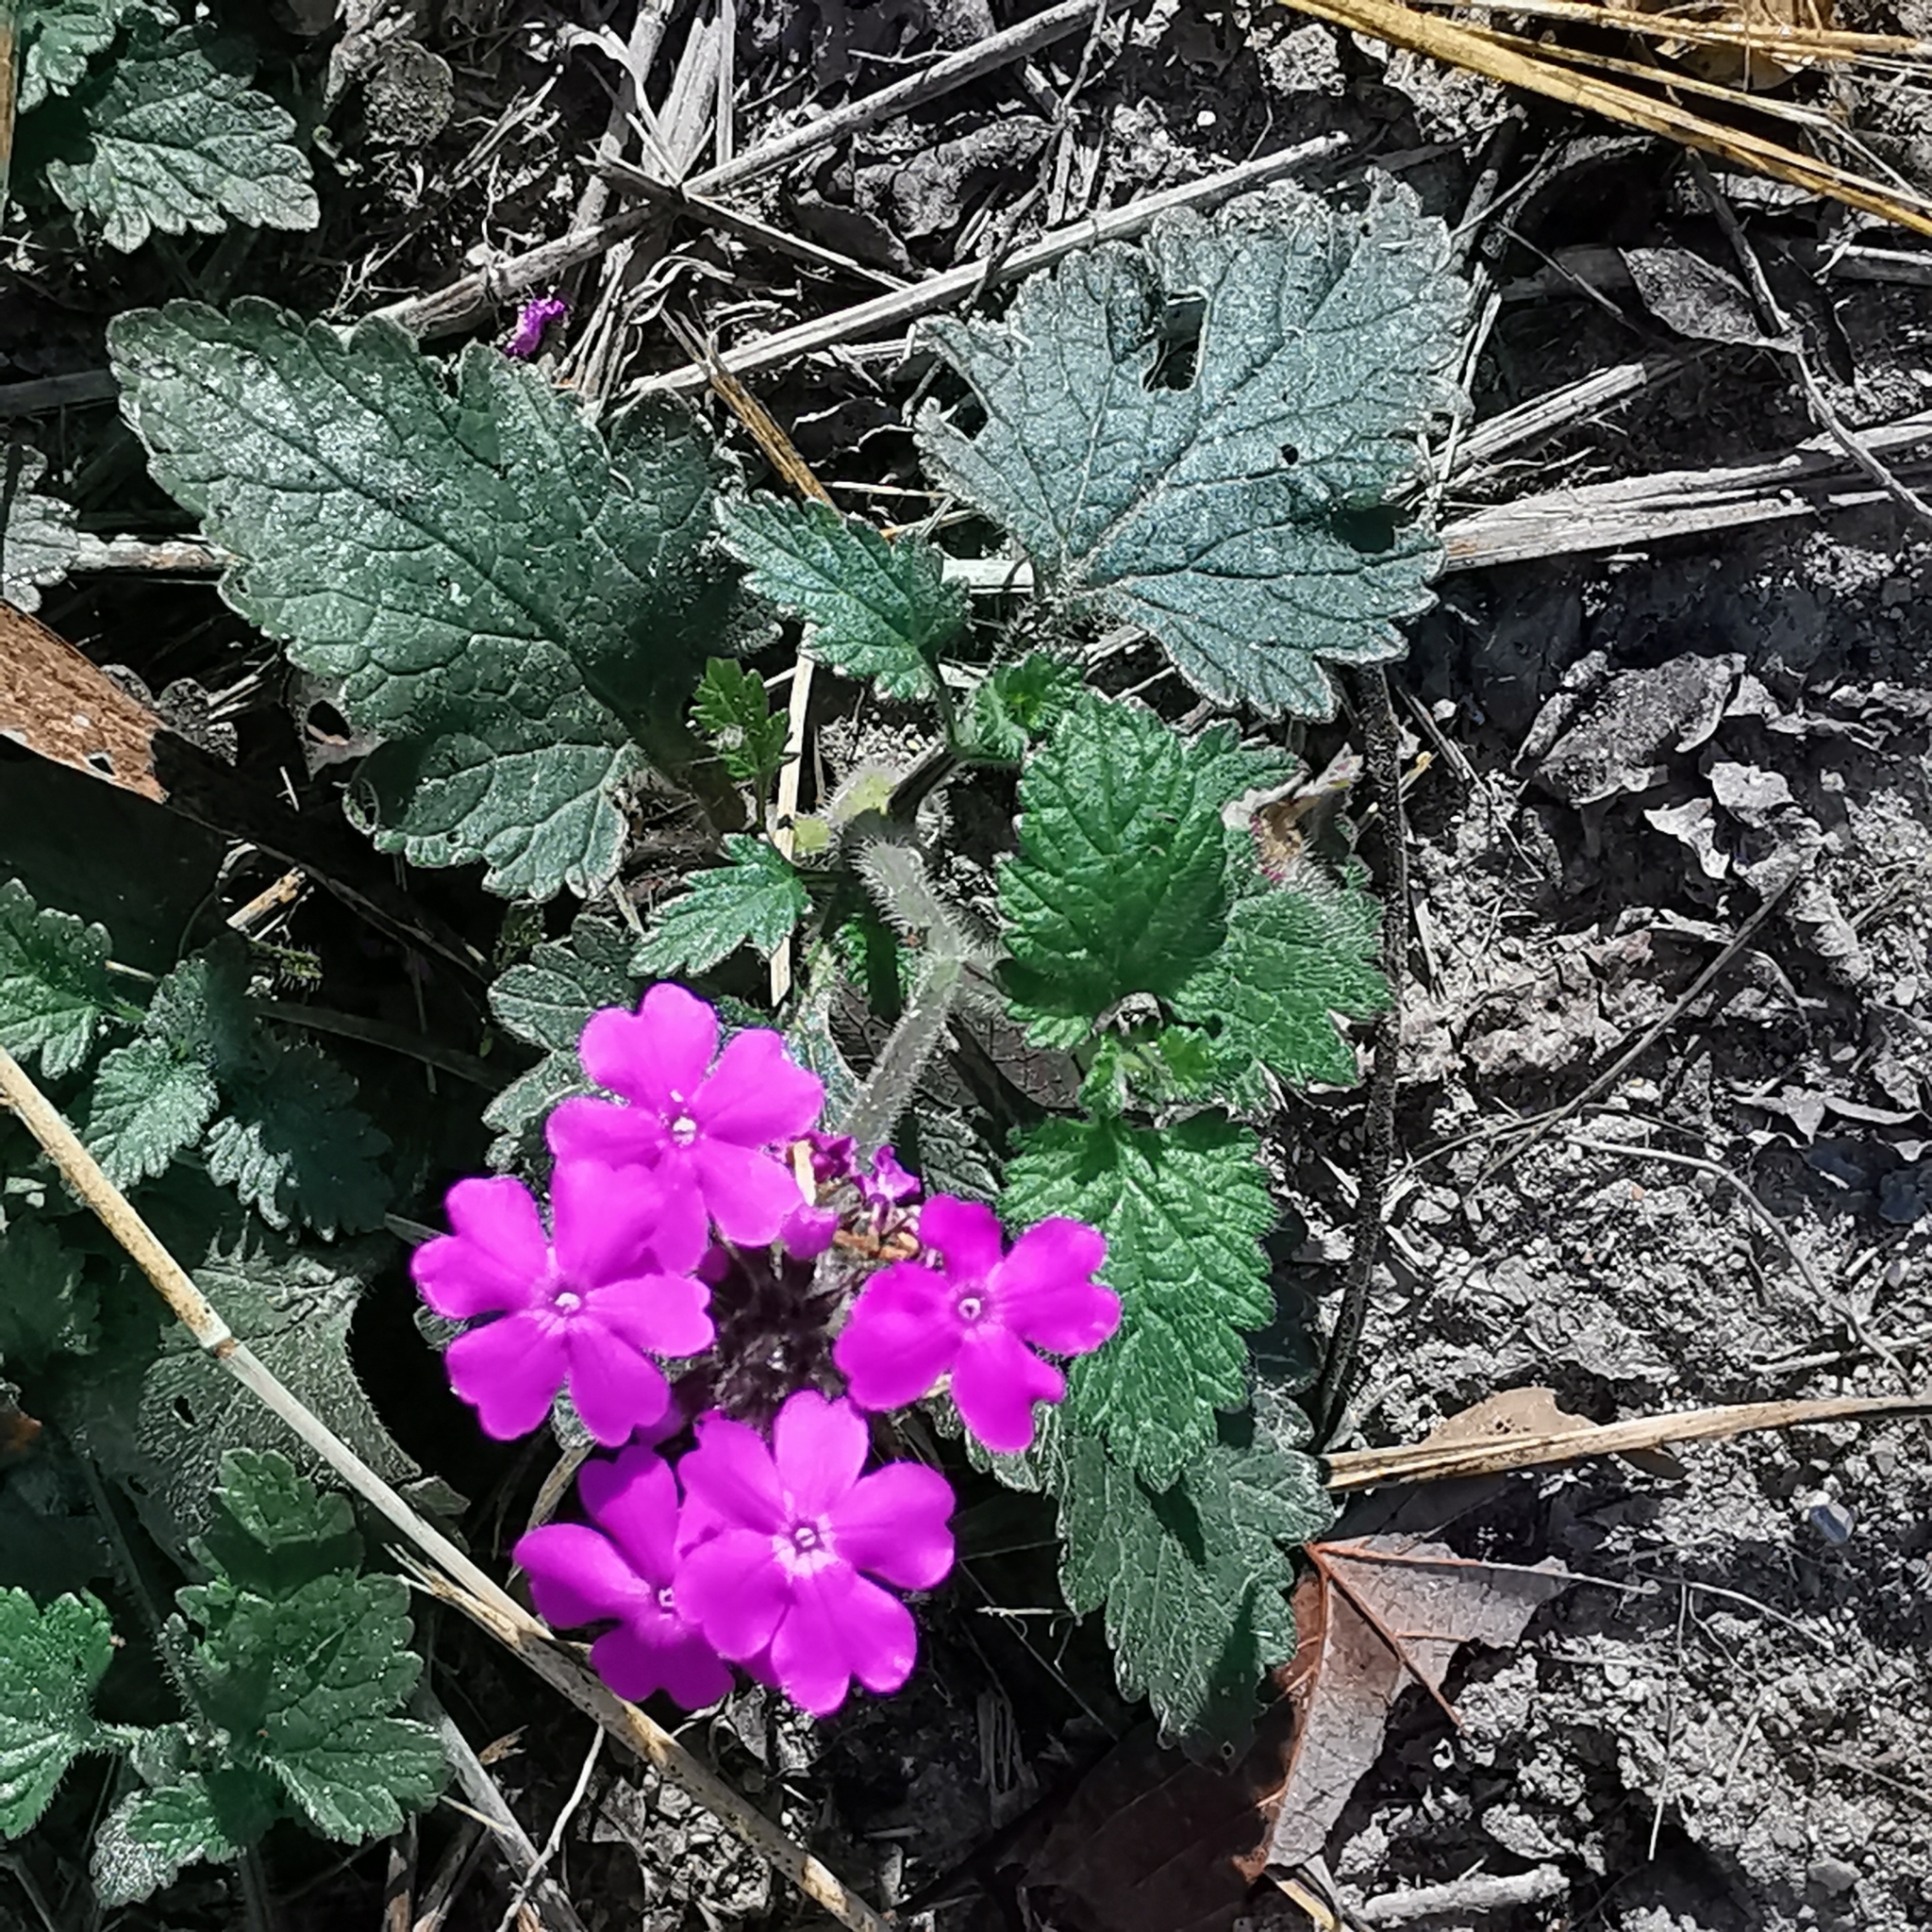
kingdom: Plantae
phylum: Tracheophyta
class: Magnoliopsida
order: Lamiales
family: Verbenaceae
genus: Verbena
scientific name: Verbena canadensis
